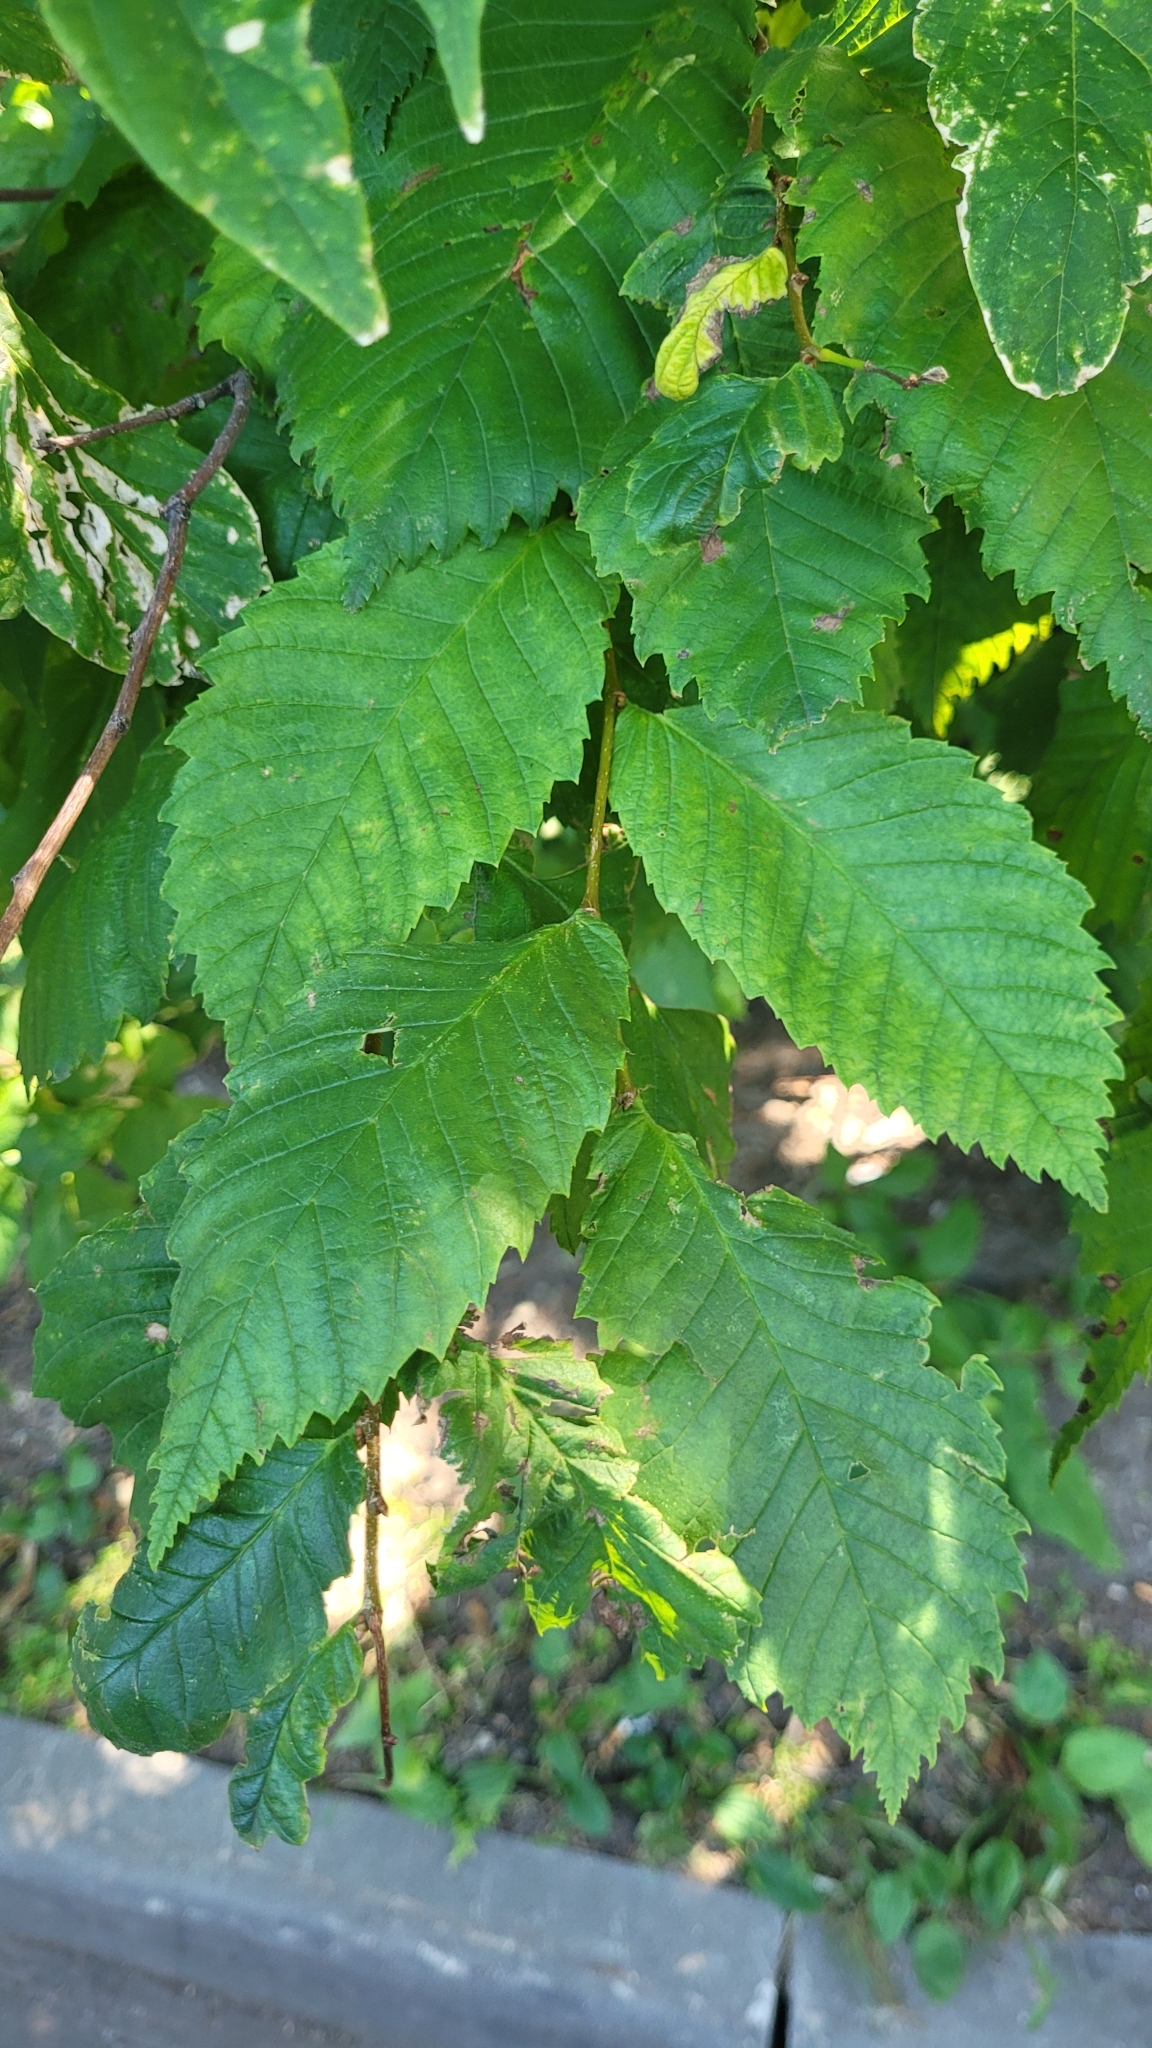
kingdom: Plantae
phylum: Tracheophyta
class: Magnoliopsida
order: Rosales
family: Ulmaceae
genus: Ulmus
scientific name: Ulmus laevis
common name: European white-elm
